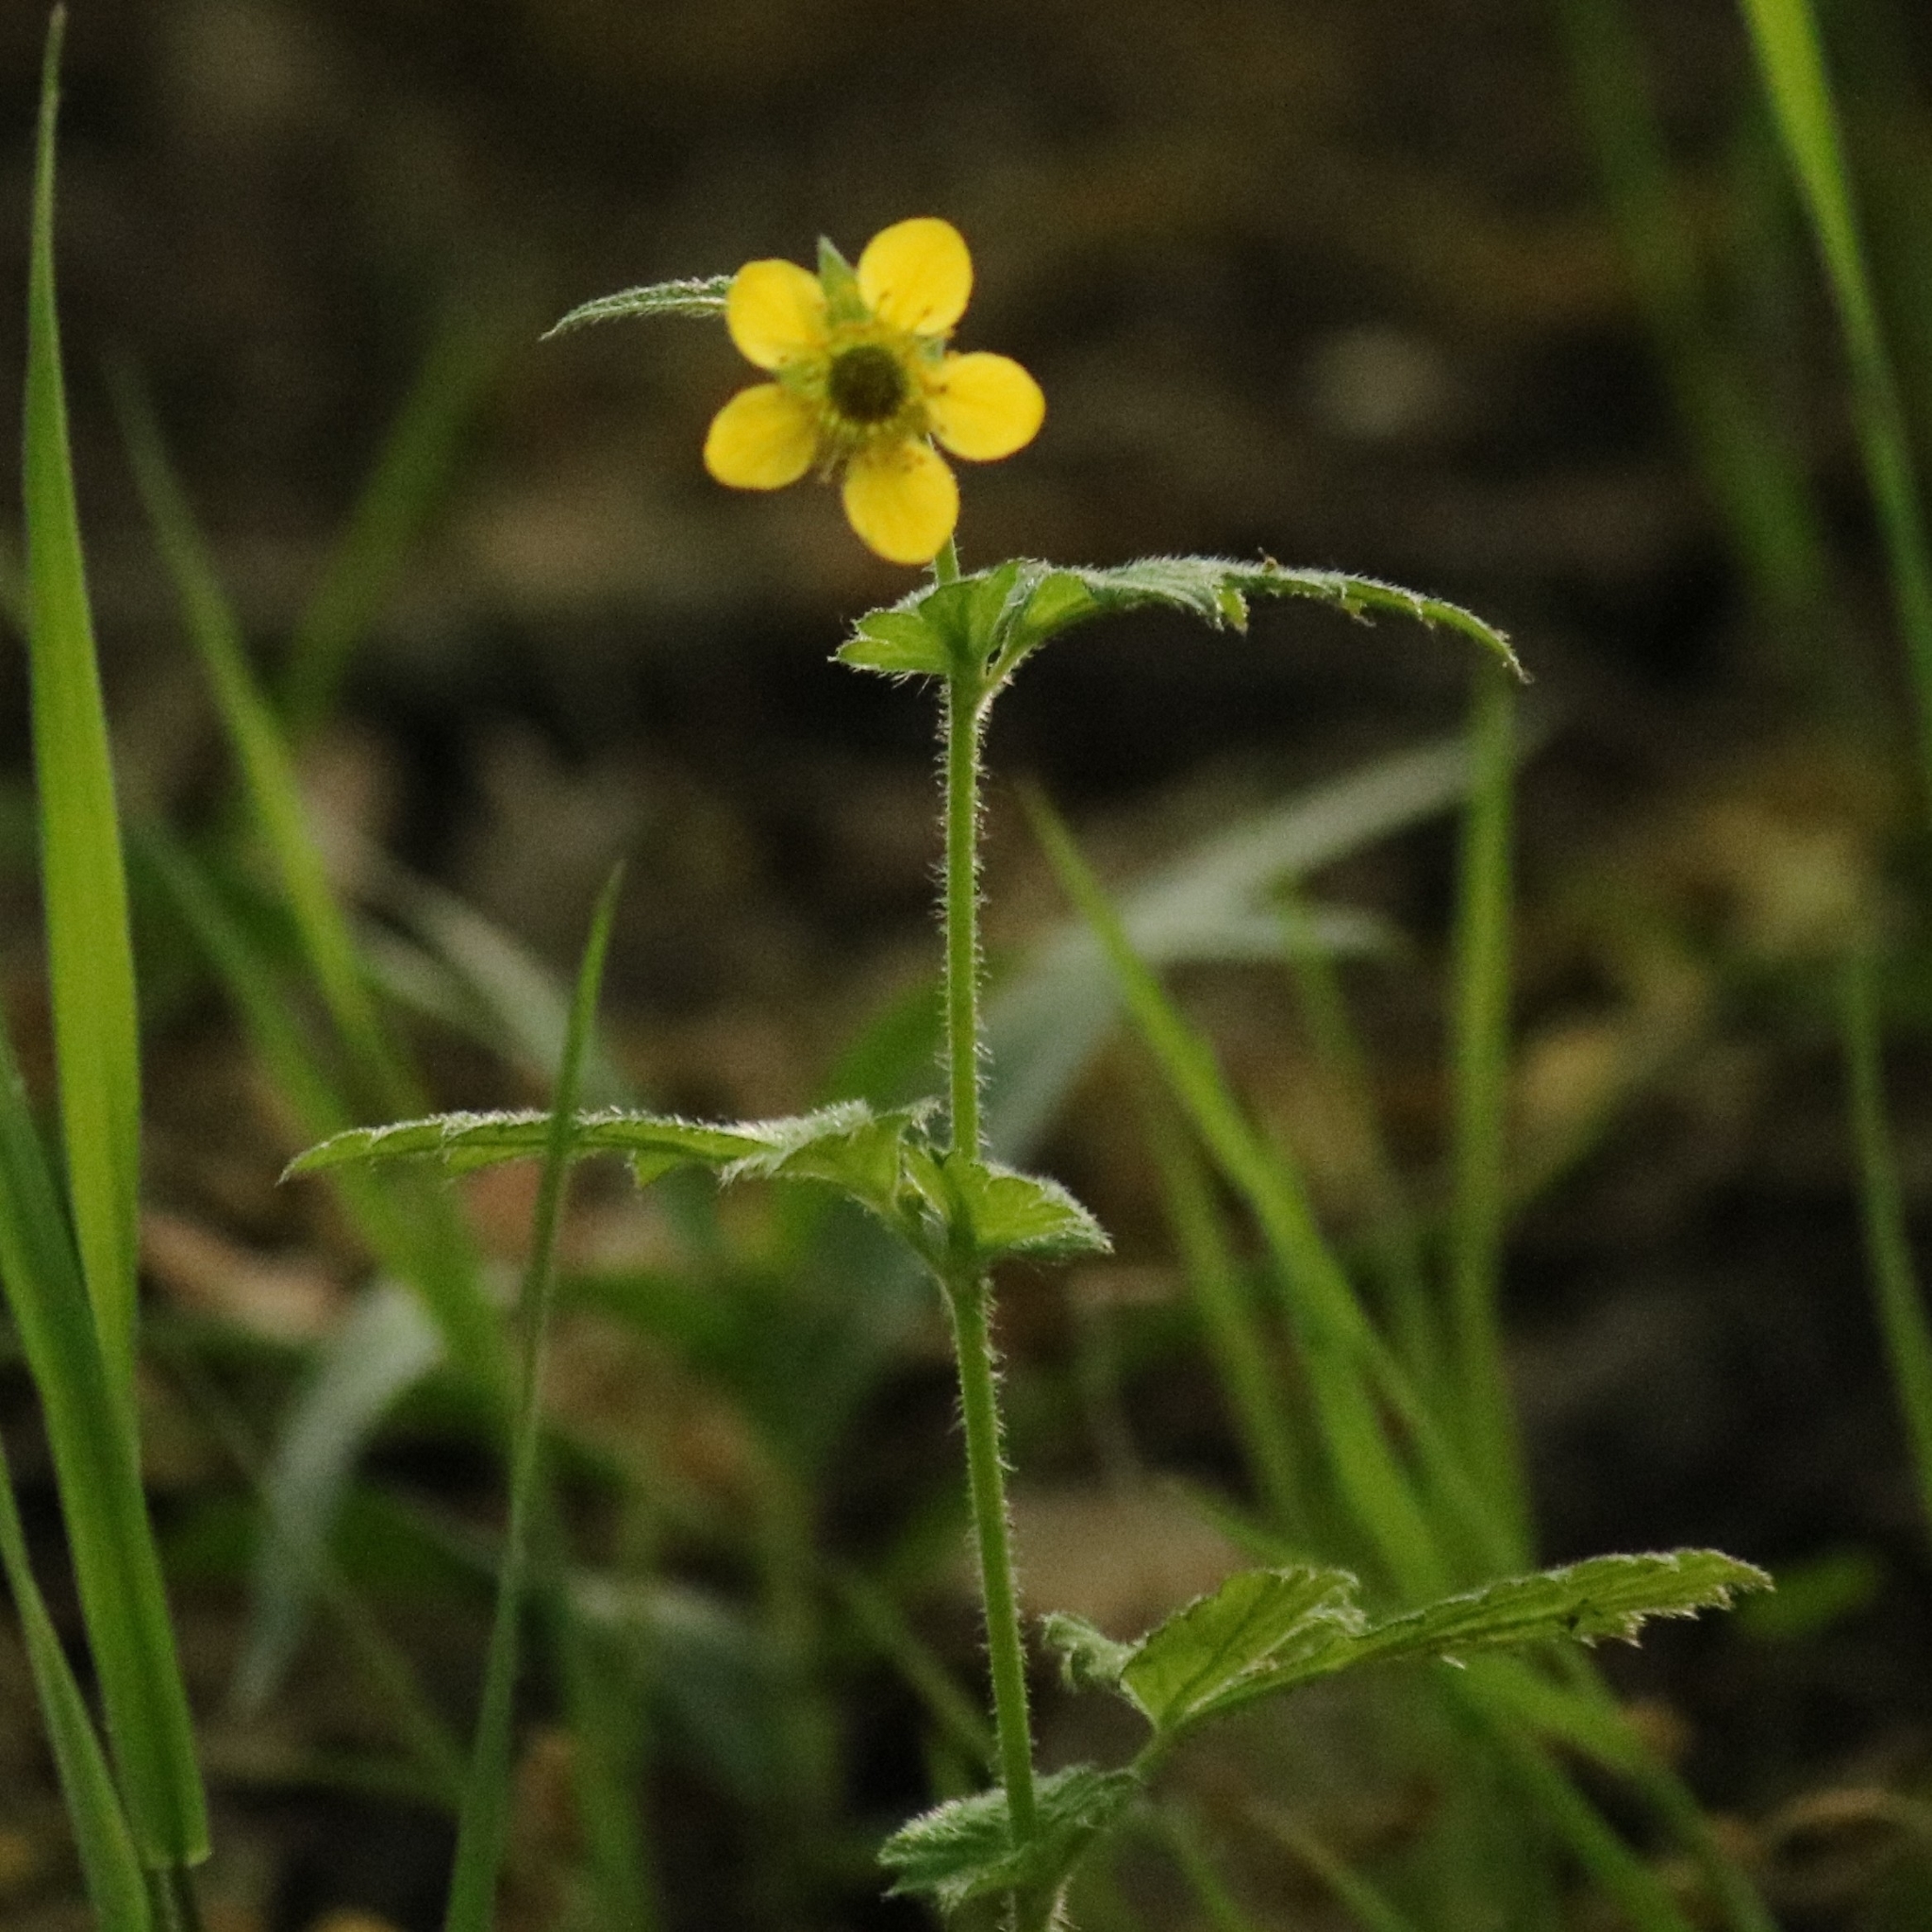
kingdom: Plantae
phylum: Tracheophyta
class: Magnoliopsida
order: Rosales
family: Rosaceae
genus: Geum
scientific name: Geum urbanum
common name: Wood avens
